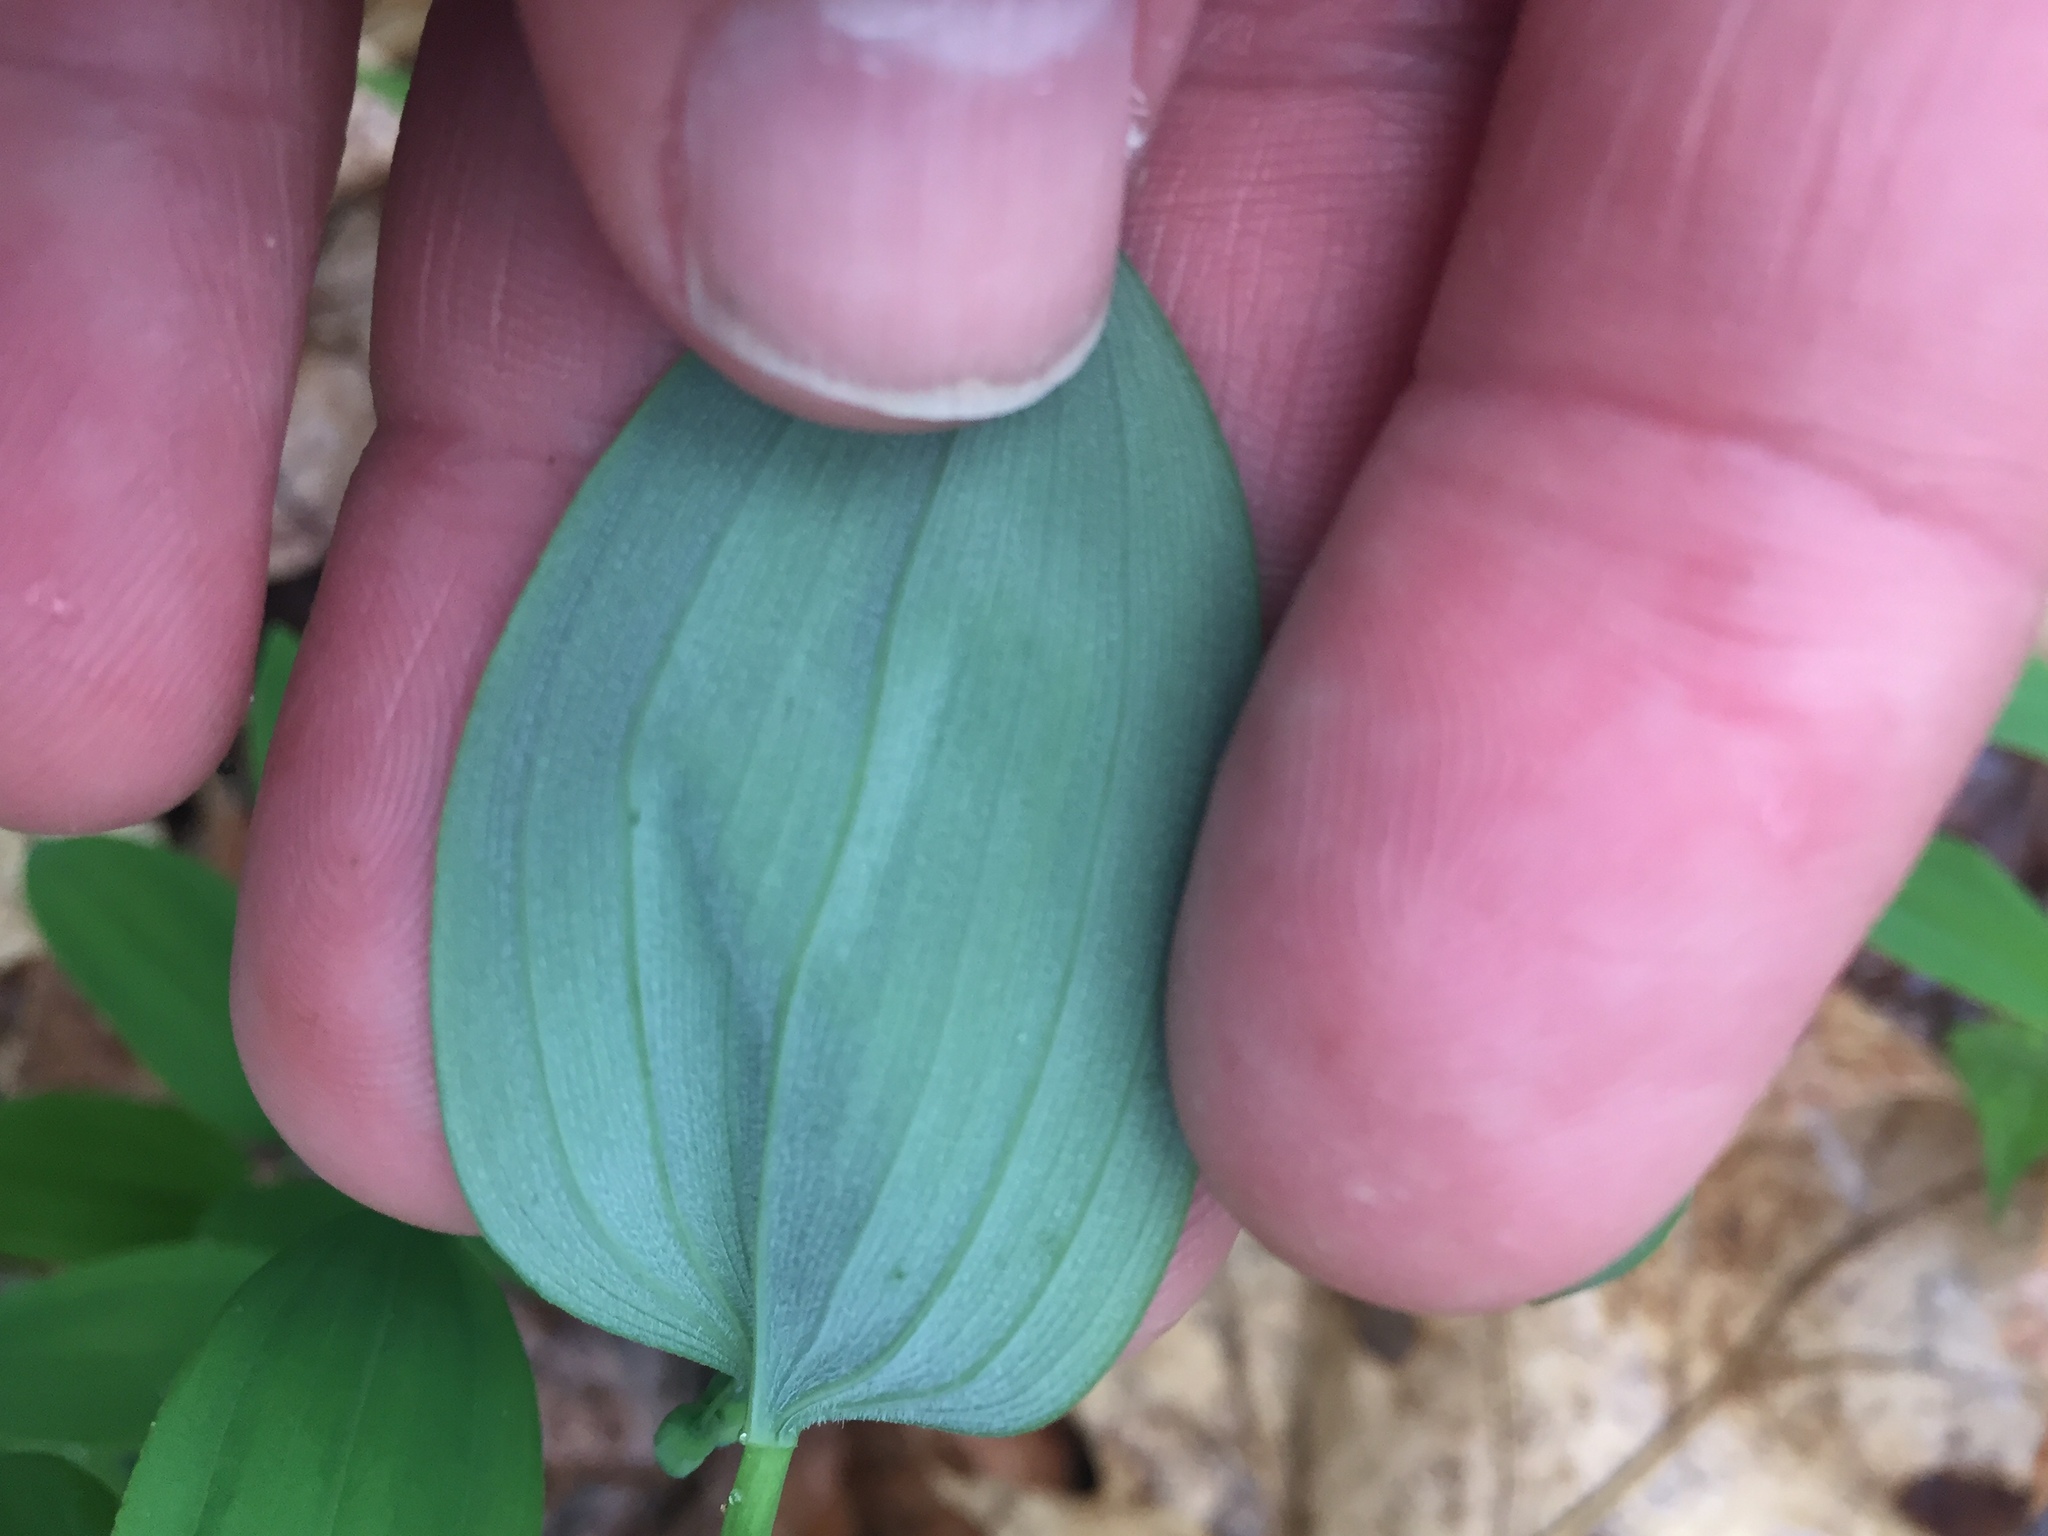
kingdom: Plantae
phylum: Tracheophyta
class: Liliopsida
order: Asparagales
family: Asparagaceae
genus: Polygonatum
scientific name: Polygonatum pubescens
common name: Downy solomon's seal
